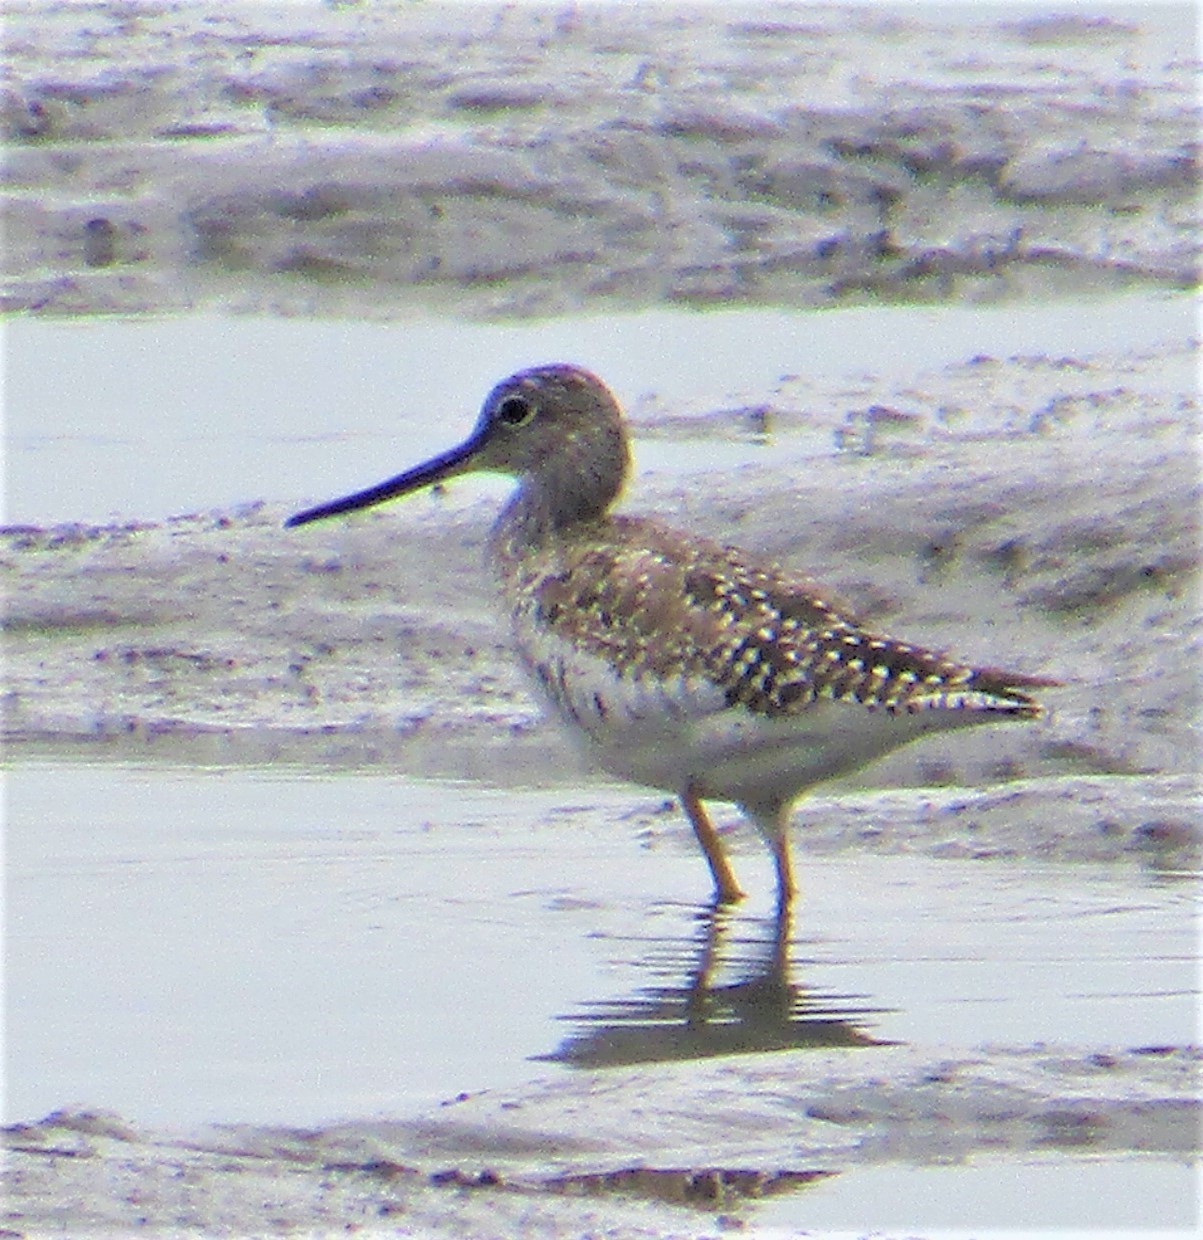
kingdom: Animalia
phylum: Chordata
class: Aves
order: Charadriiformes
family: Scolopacidae
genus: Tringa
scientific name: Tringa melanoleuca
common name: Greater yellowlegs
